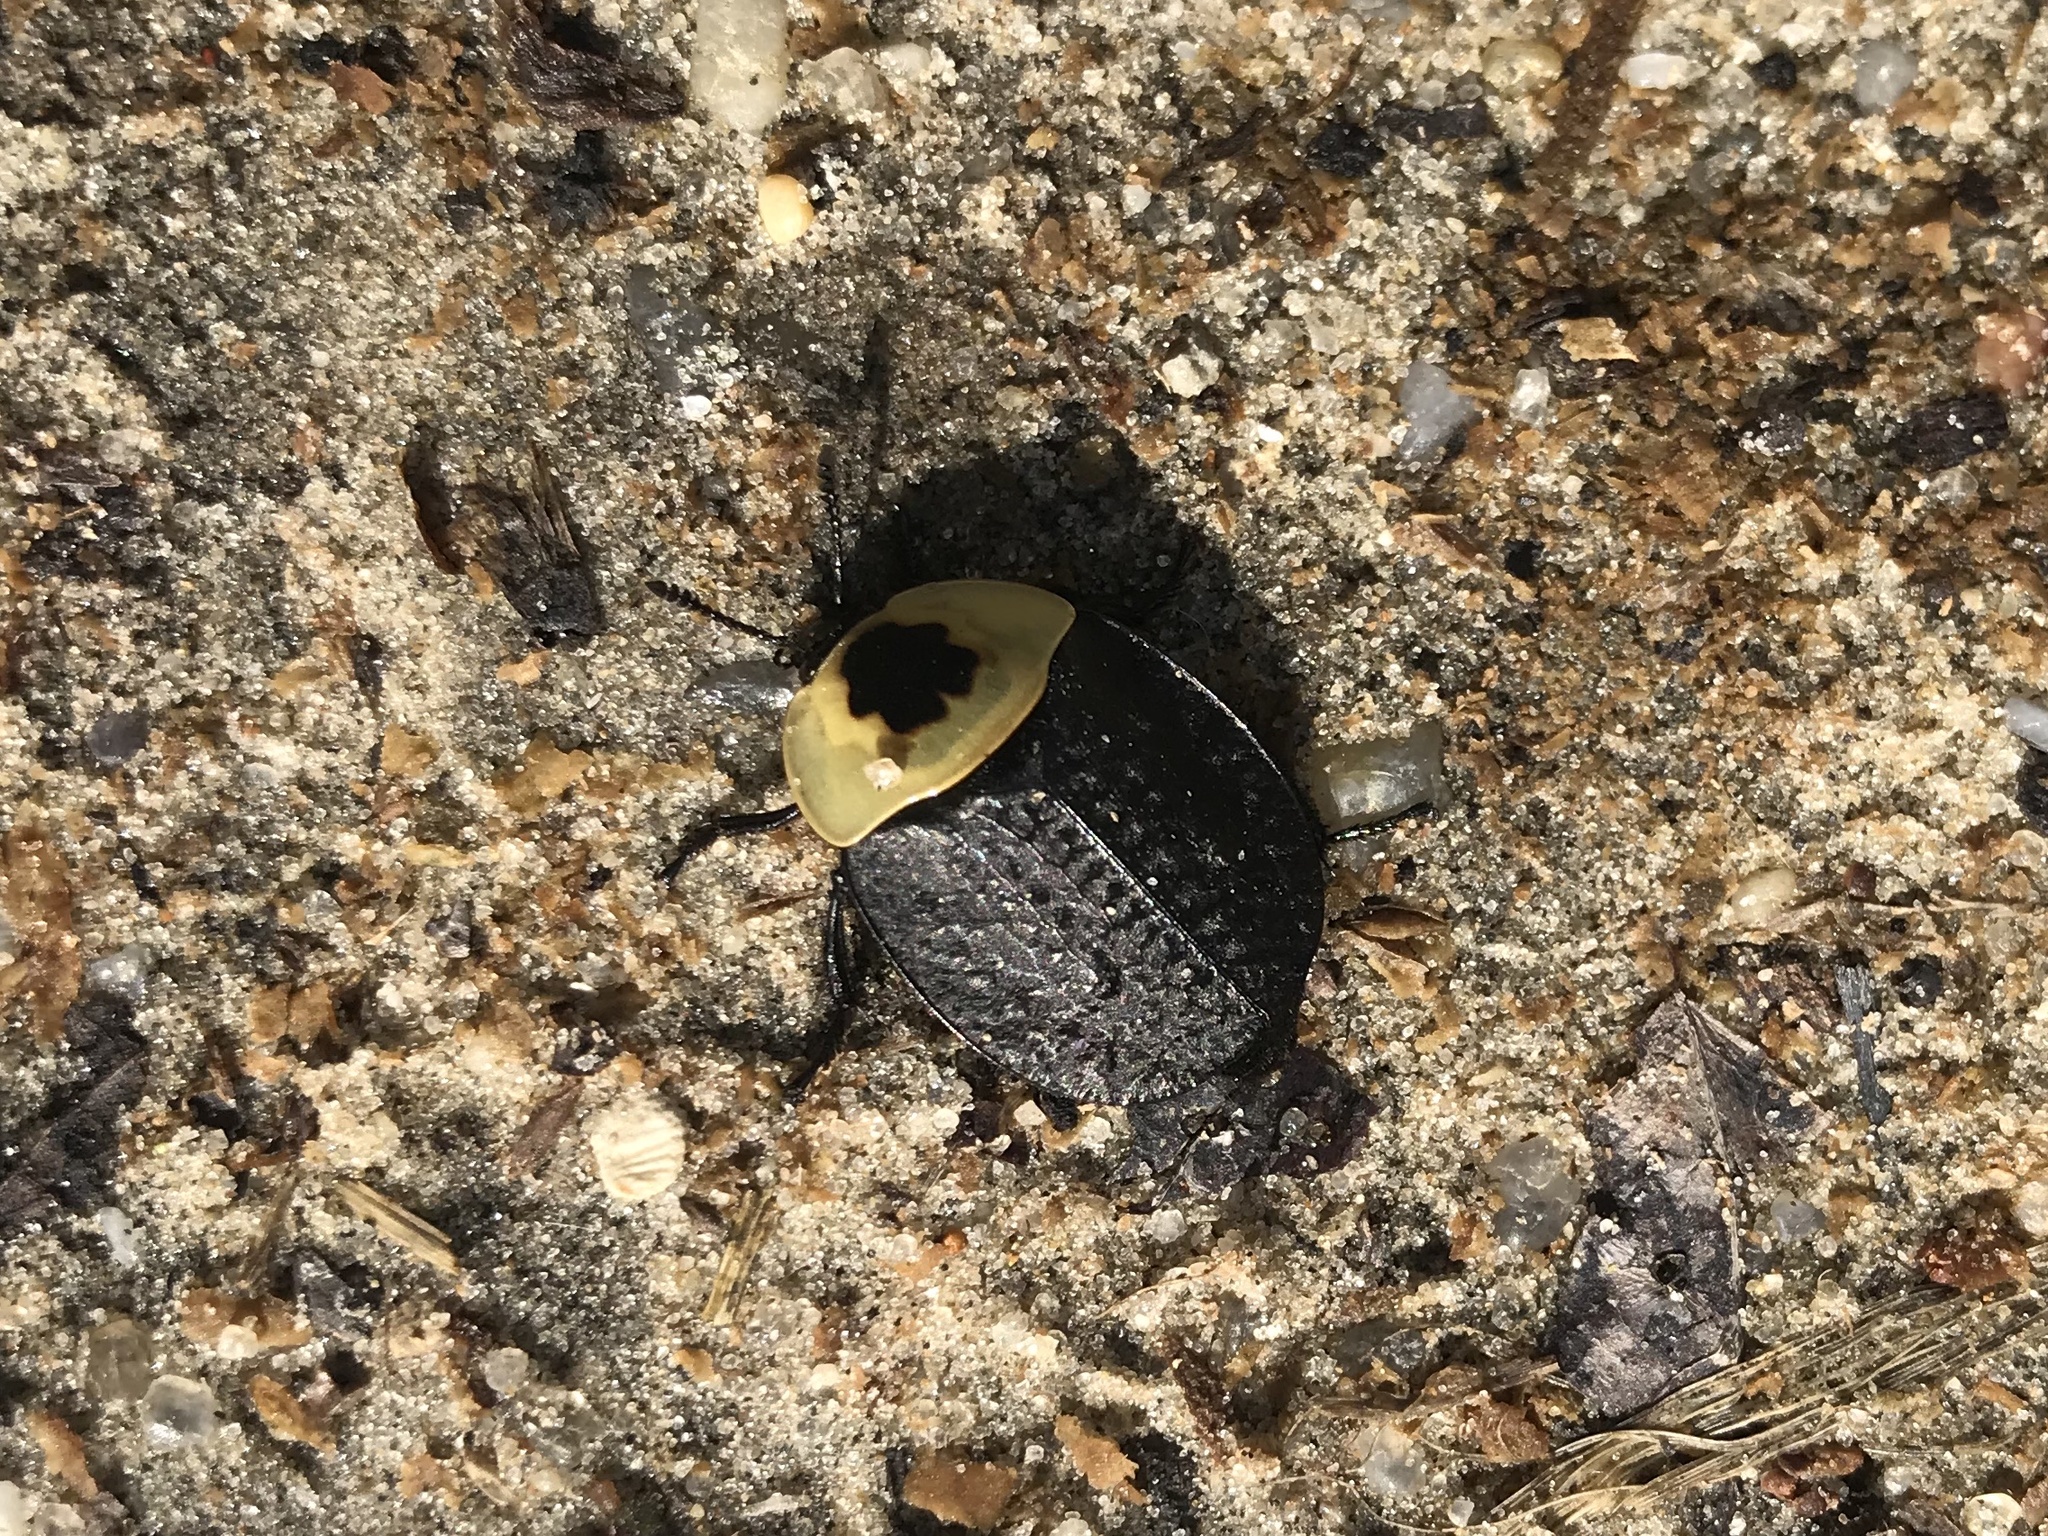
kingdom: Animalia
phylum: Arthropoda
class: Insecta
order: Coleoptera
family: Staphylinidae
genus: Necrophila
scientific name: Necrophila americana
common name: American carrion beetle
